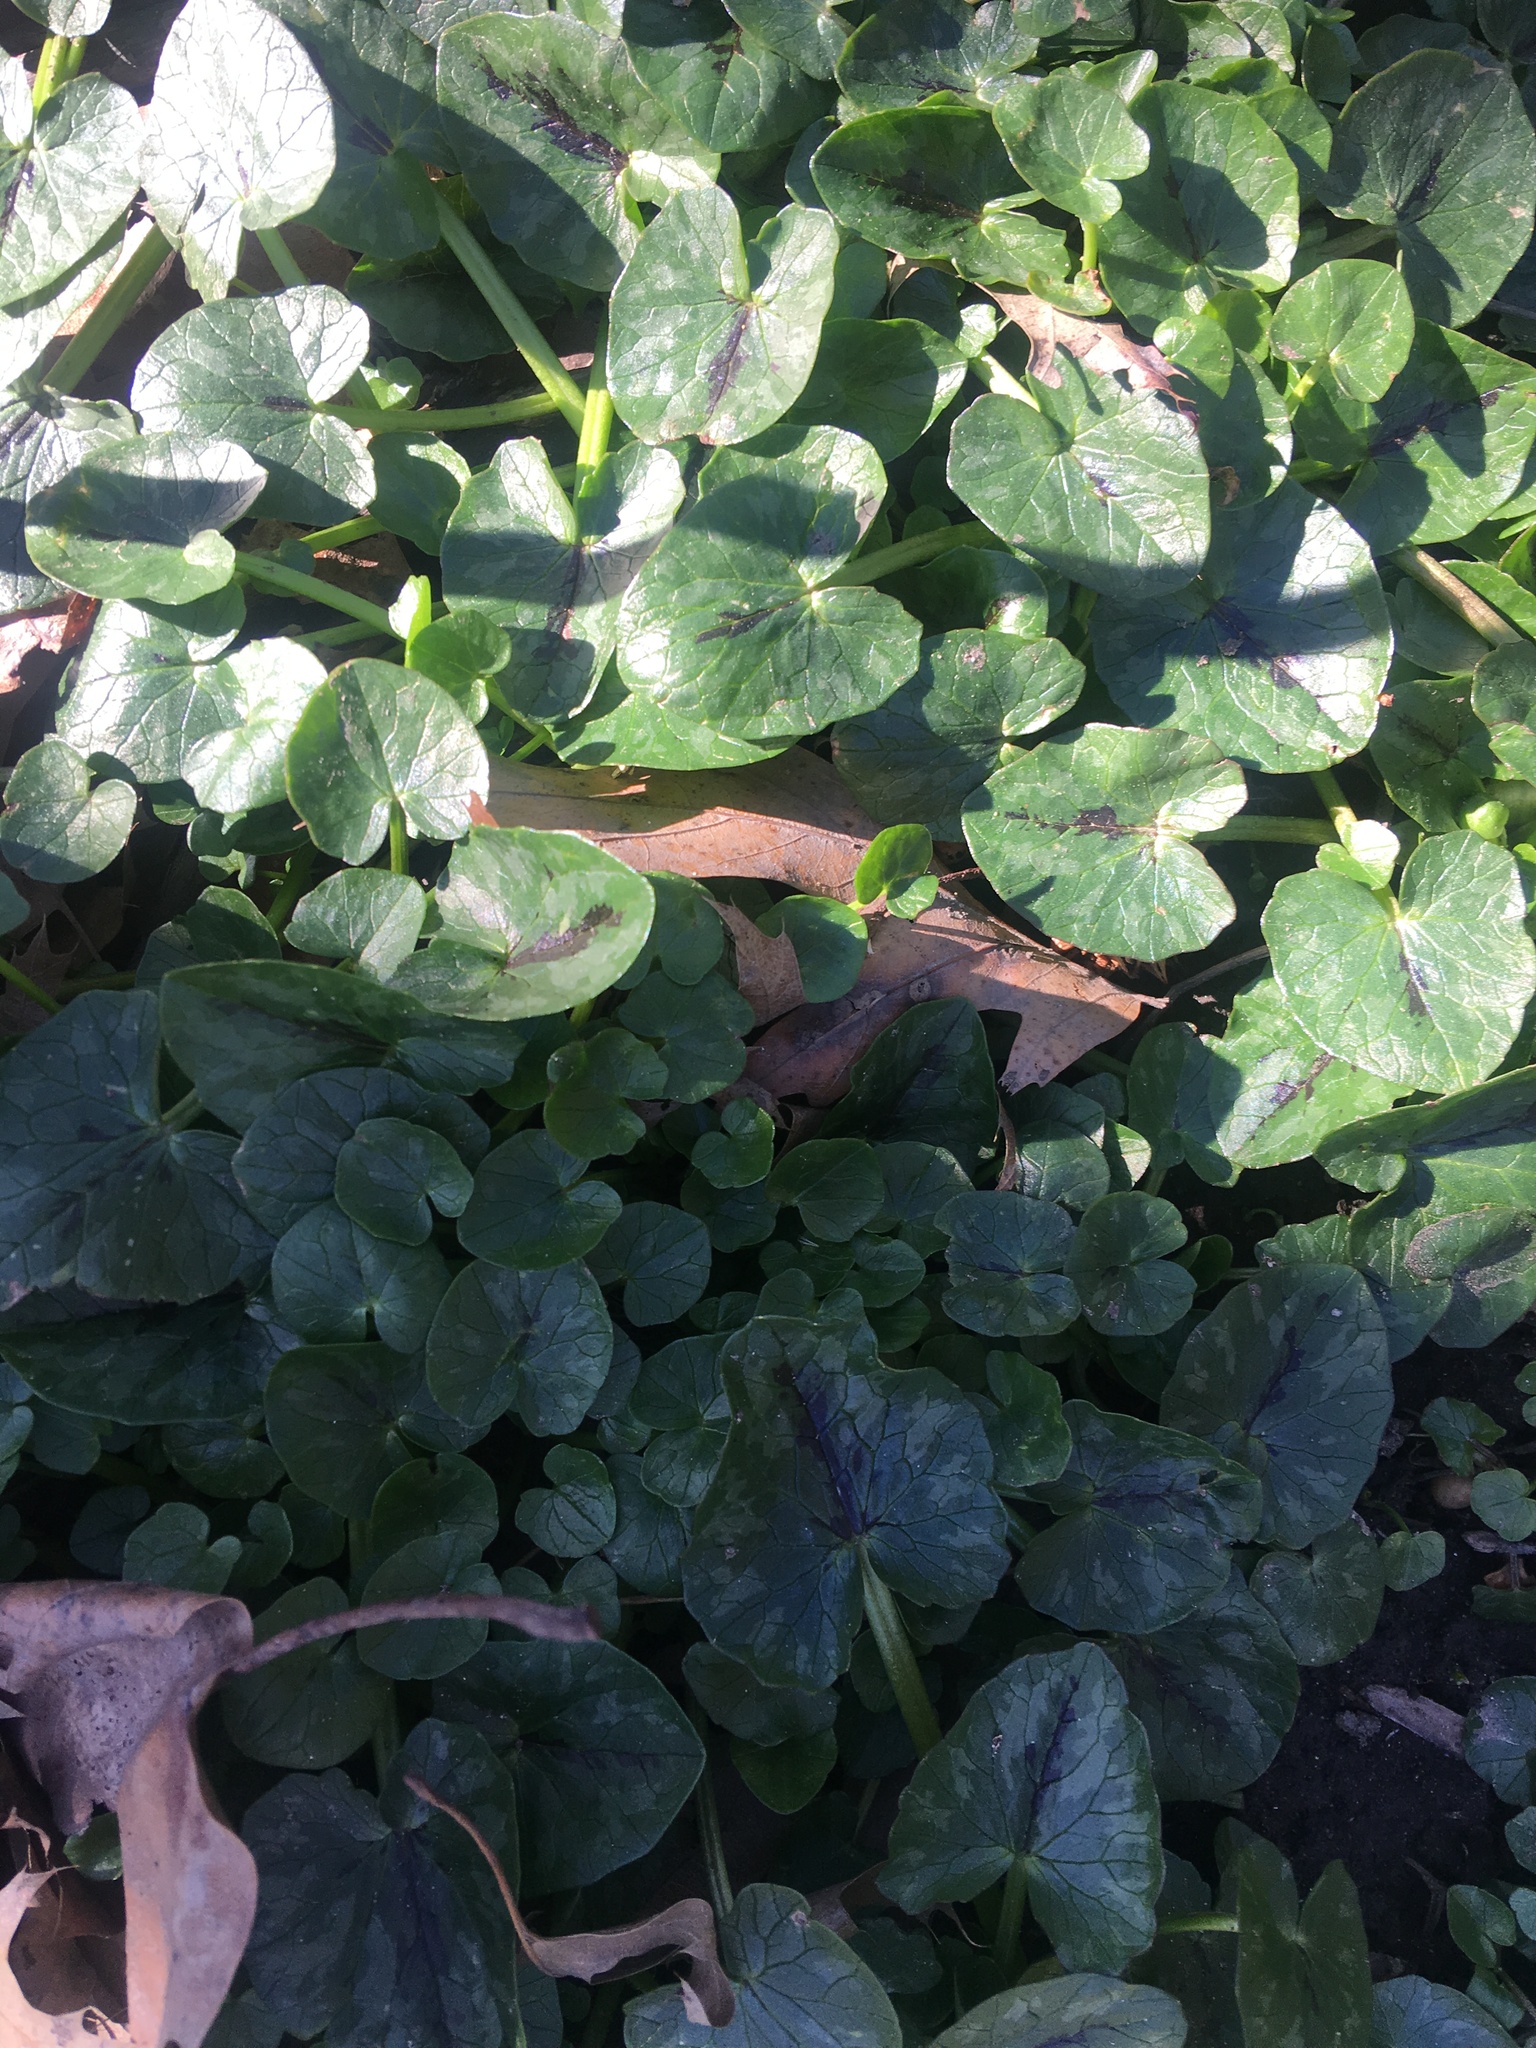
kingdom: Plantae
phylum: Tracheophyta
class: Magnoliopsida
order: Ranunculales
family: Ranunculaceae
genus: Ficaria
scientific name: Ficaria verna
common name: Lesser celandine
